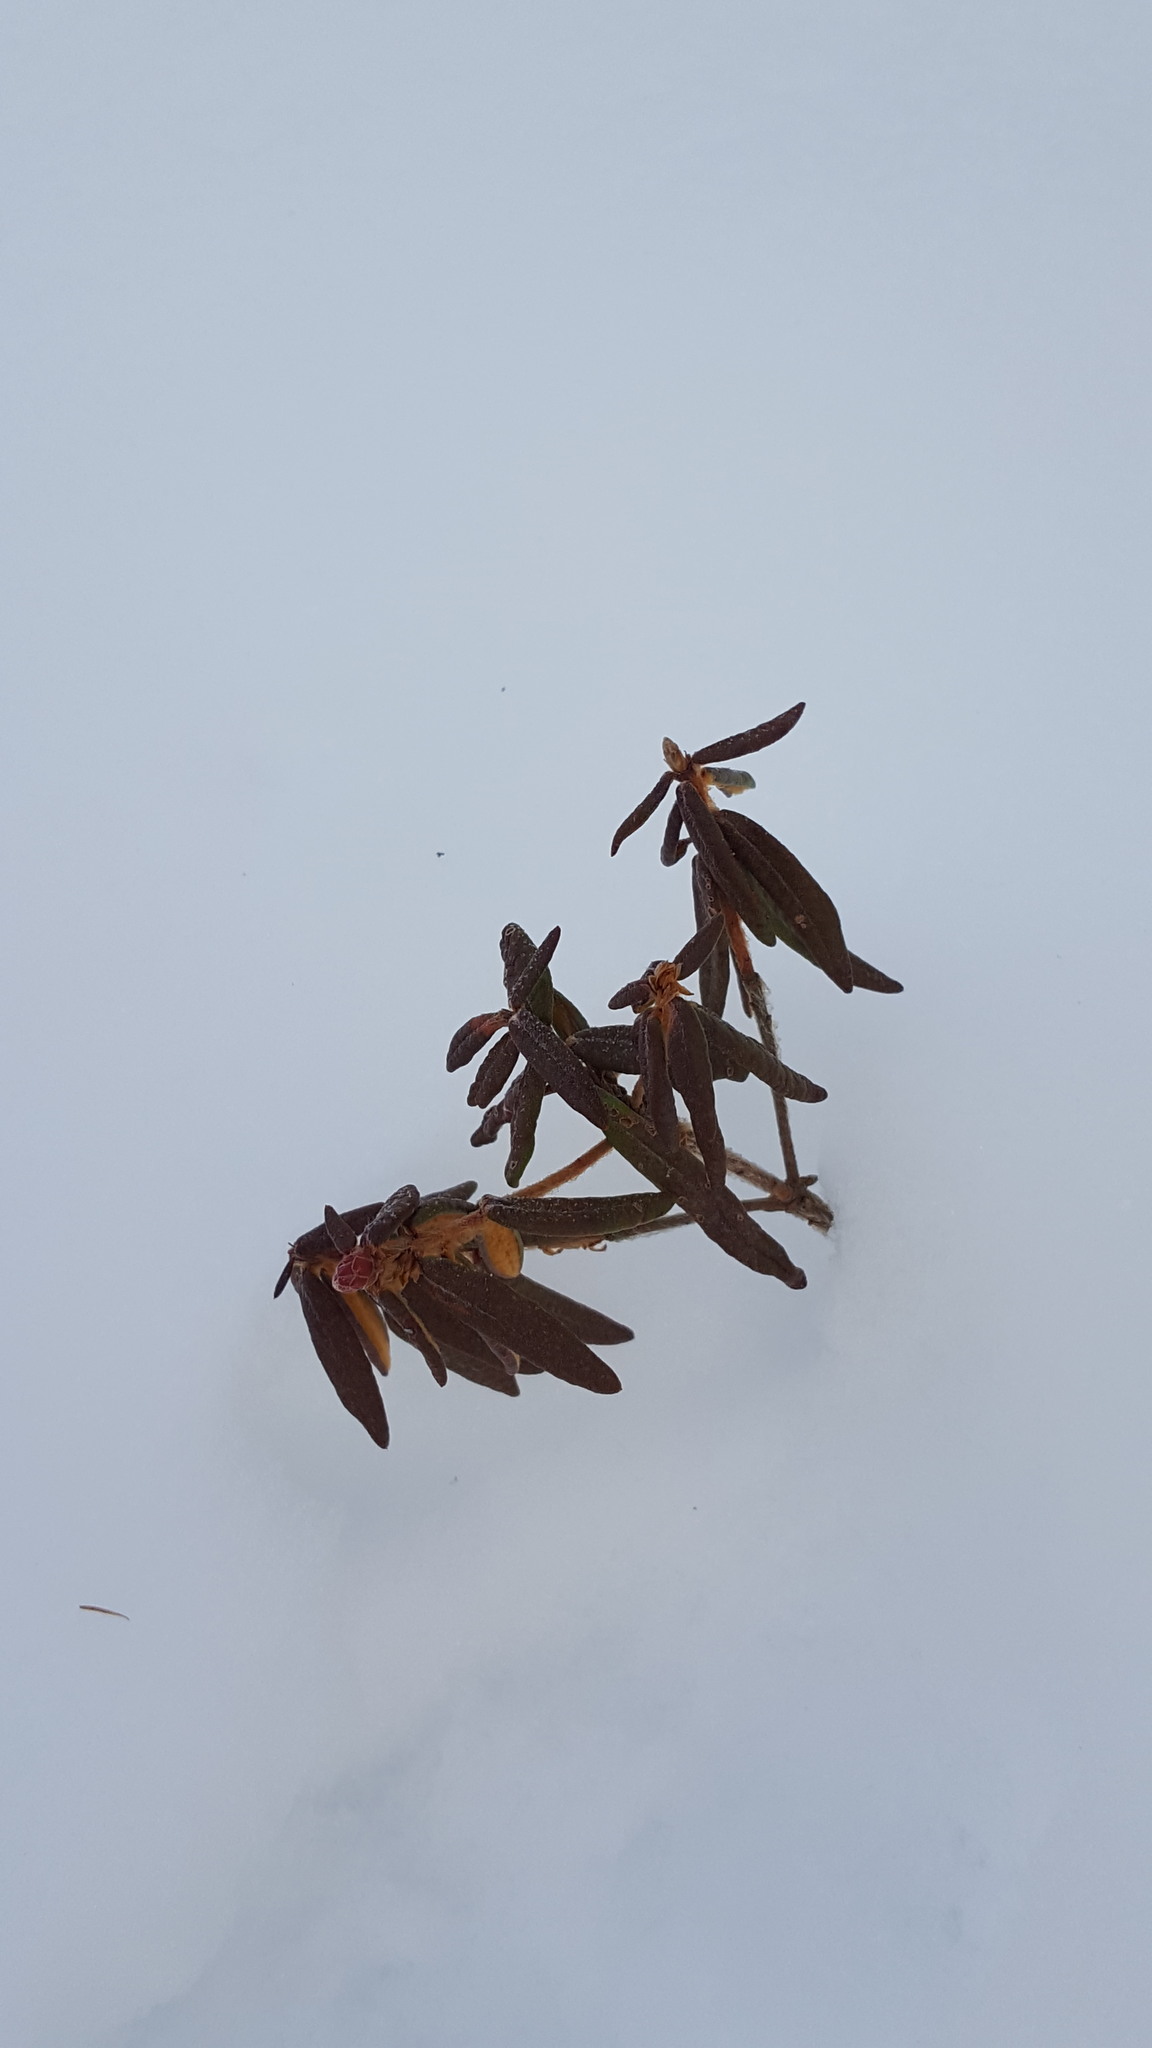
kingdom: Plantae
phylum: Tracheophyta
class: Magnoliopsida
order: Ericales
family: Ericaceae
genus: Rhododendron
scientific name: Rhododendron groenlandicum
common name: Bog labrador tea
